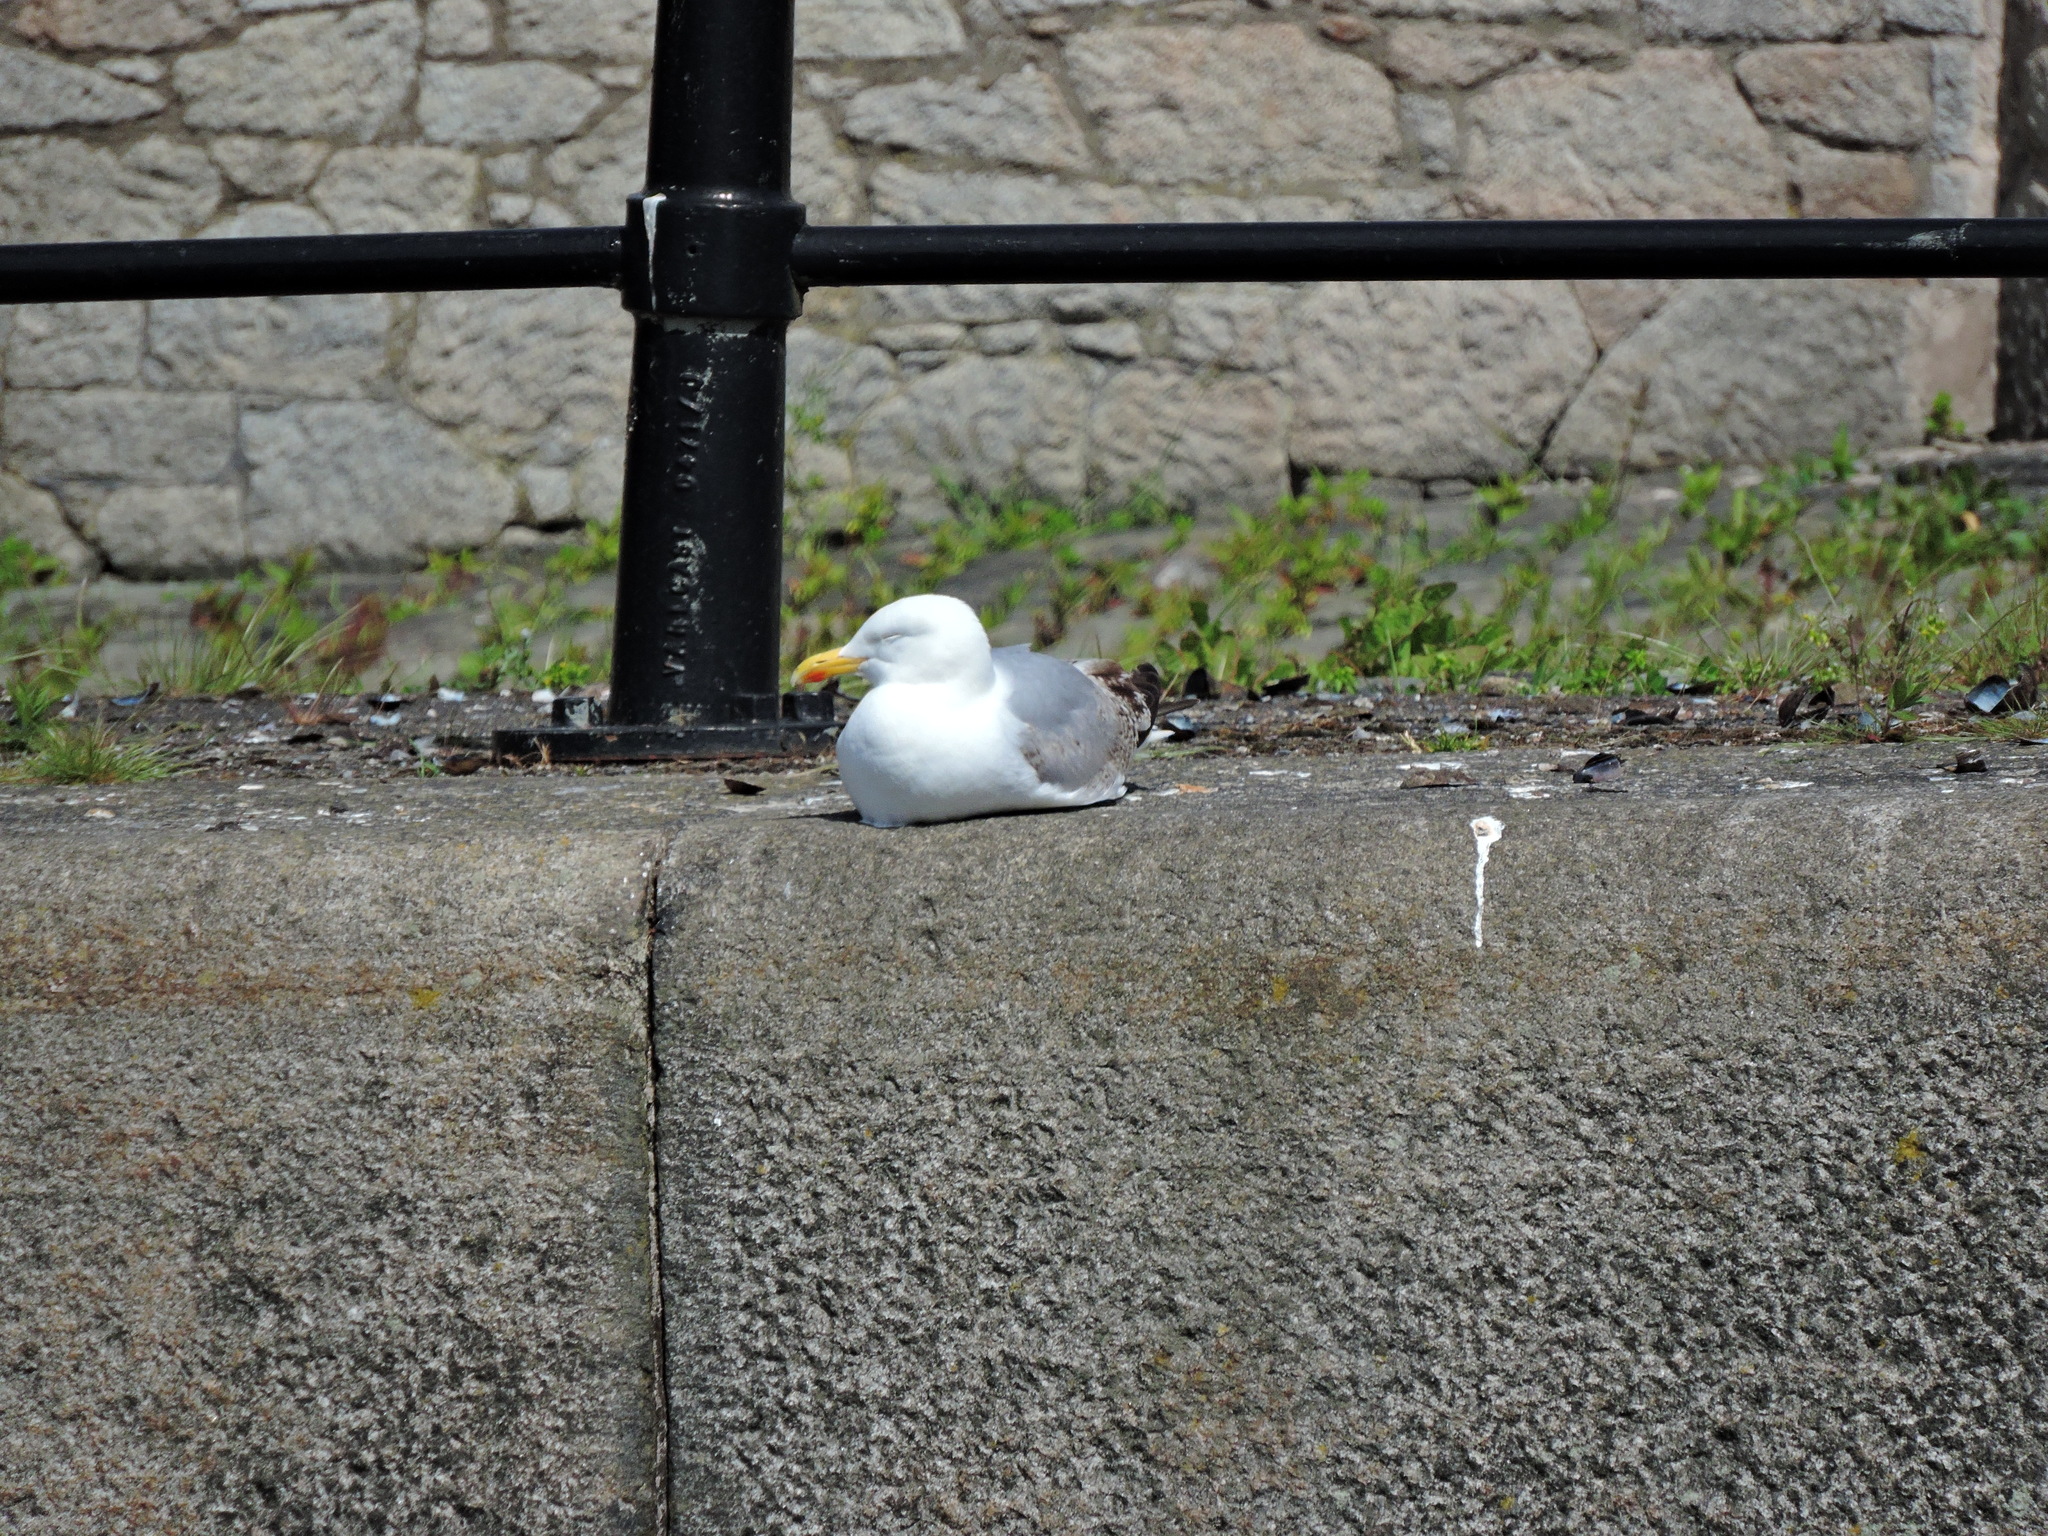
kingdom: Animalia
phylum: Chordata
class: Aves
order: Charadriiformes
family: Laridae
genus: Larus
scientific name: Larus argentatus
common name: Herring gull
